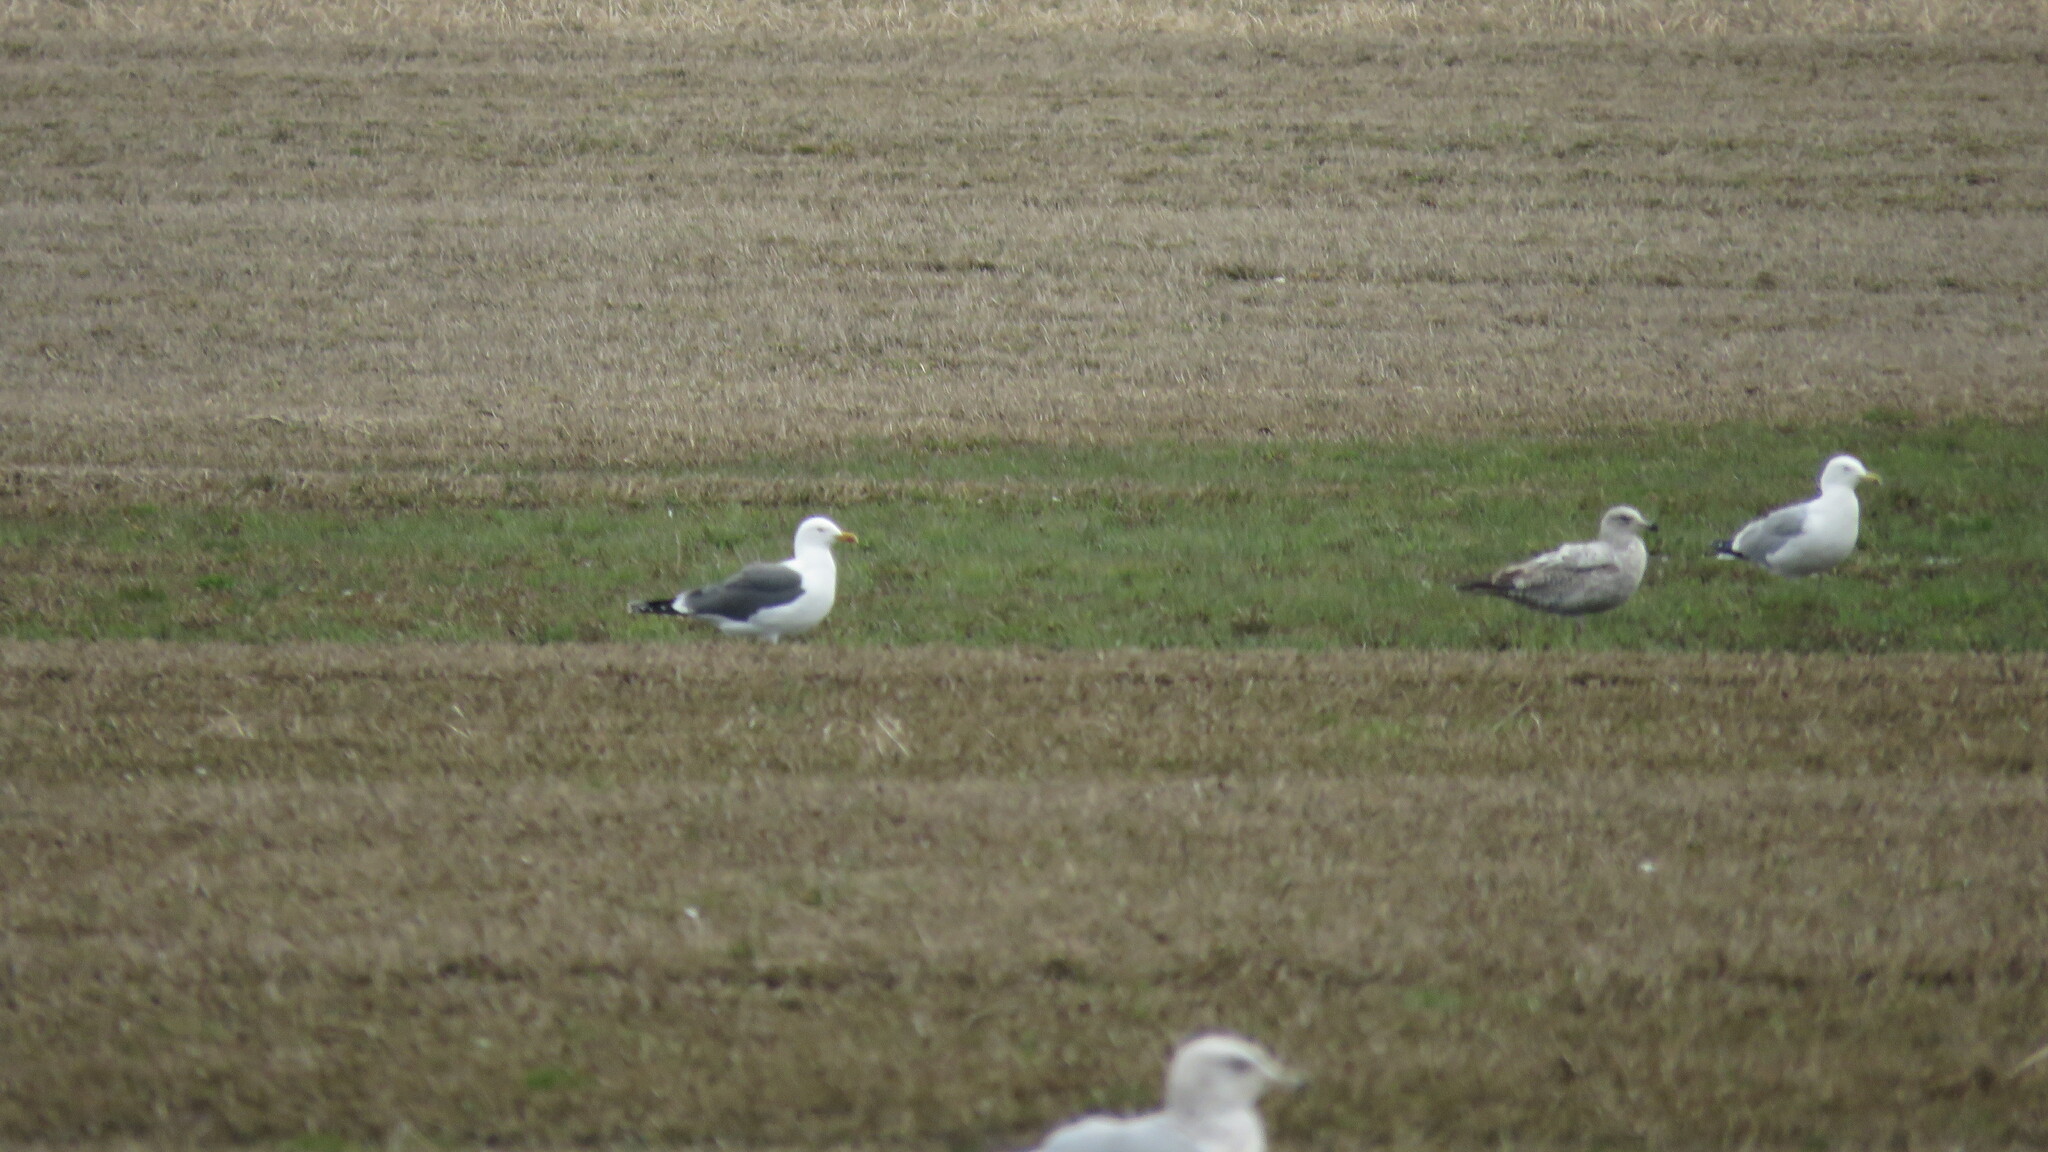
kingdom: Animalia
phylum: Chordata
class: Aves
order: Charadriiformes
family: Laridae
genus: Larus
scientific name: Larus fuscus
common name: Lesser black-backed gull
